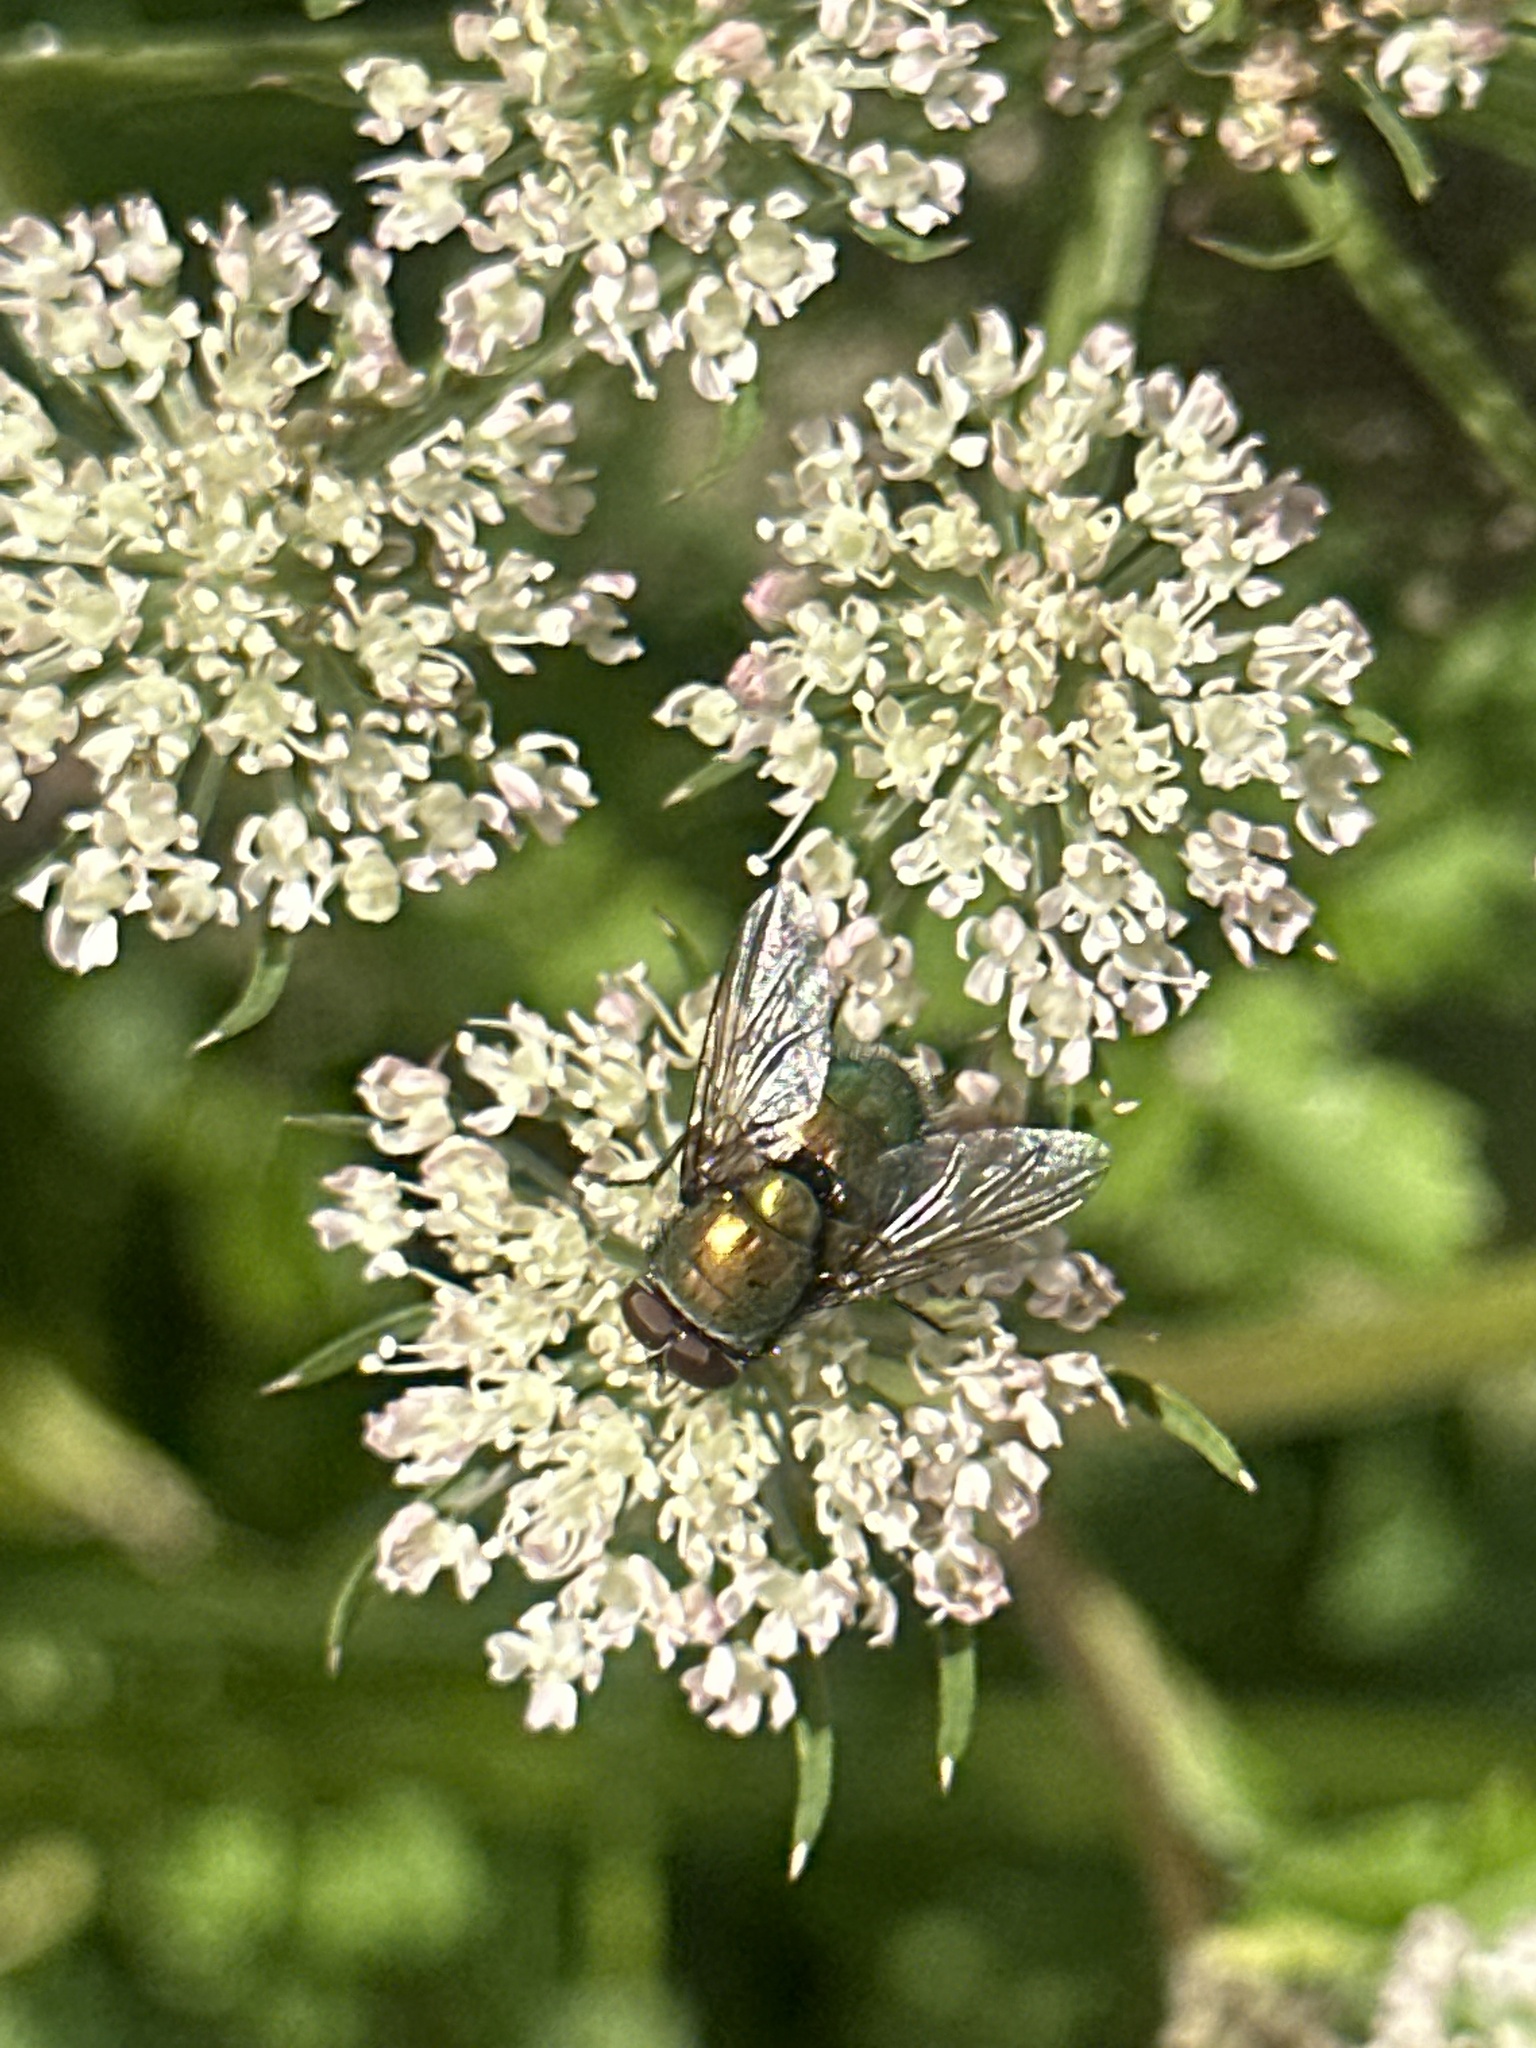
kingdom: Animalia
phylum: Arthropoda
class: Insecta
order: Diptera
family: Calliphoridae
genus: Lucilia
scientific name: Lucilia
